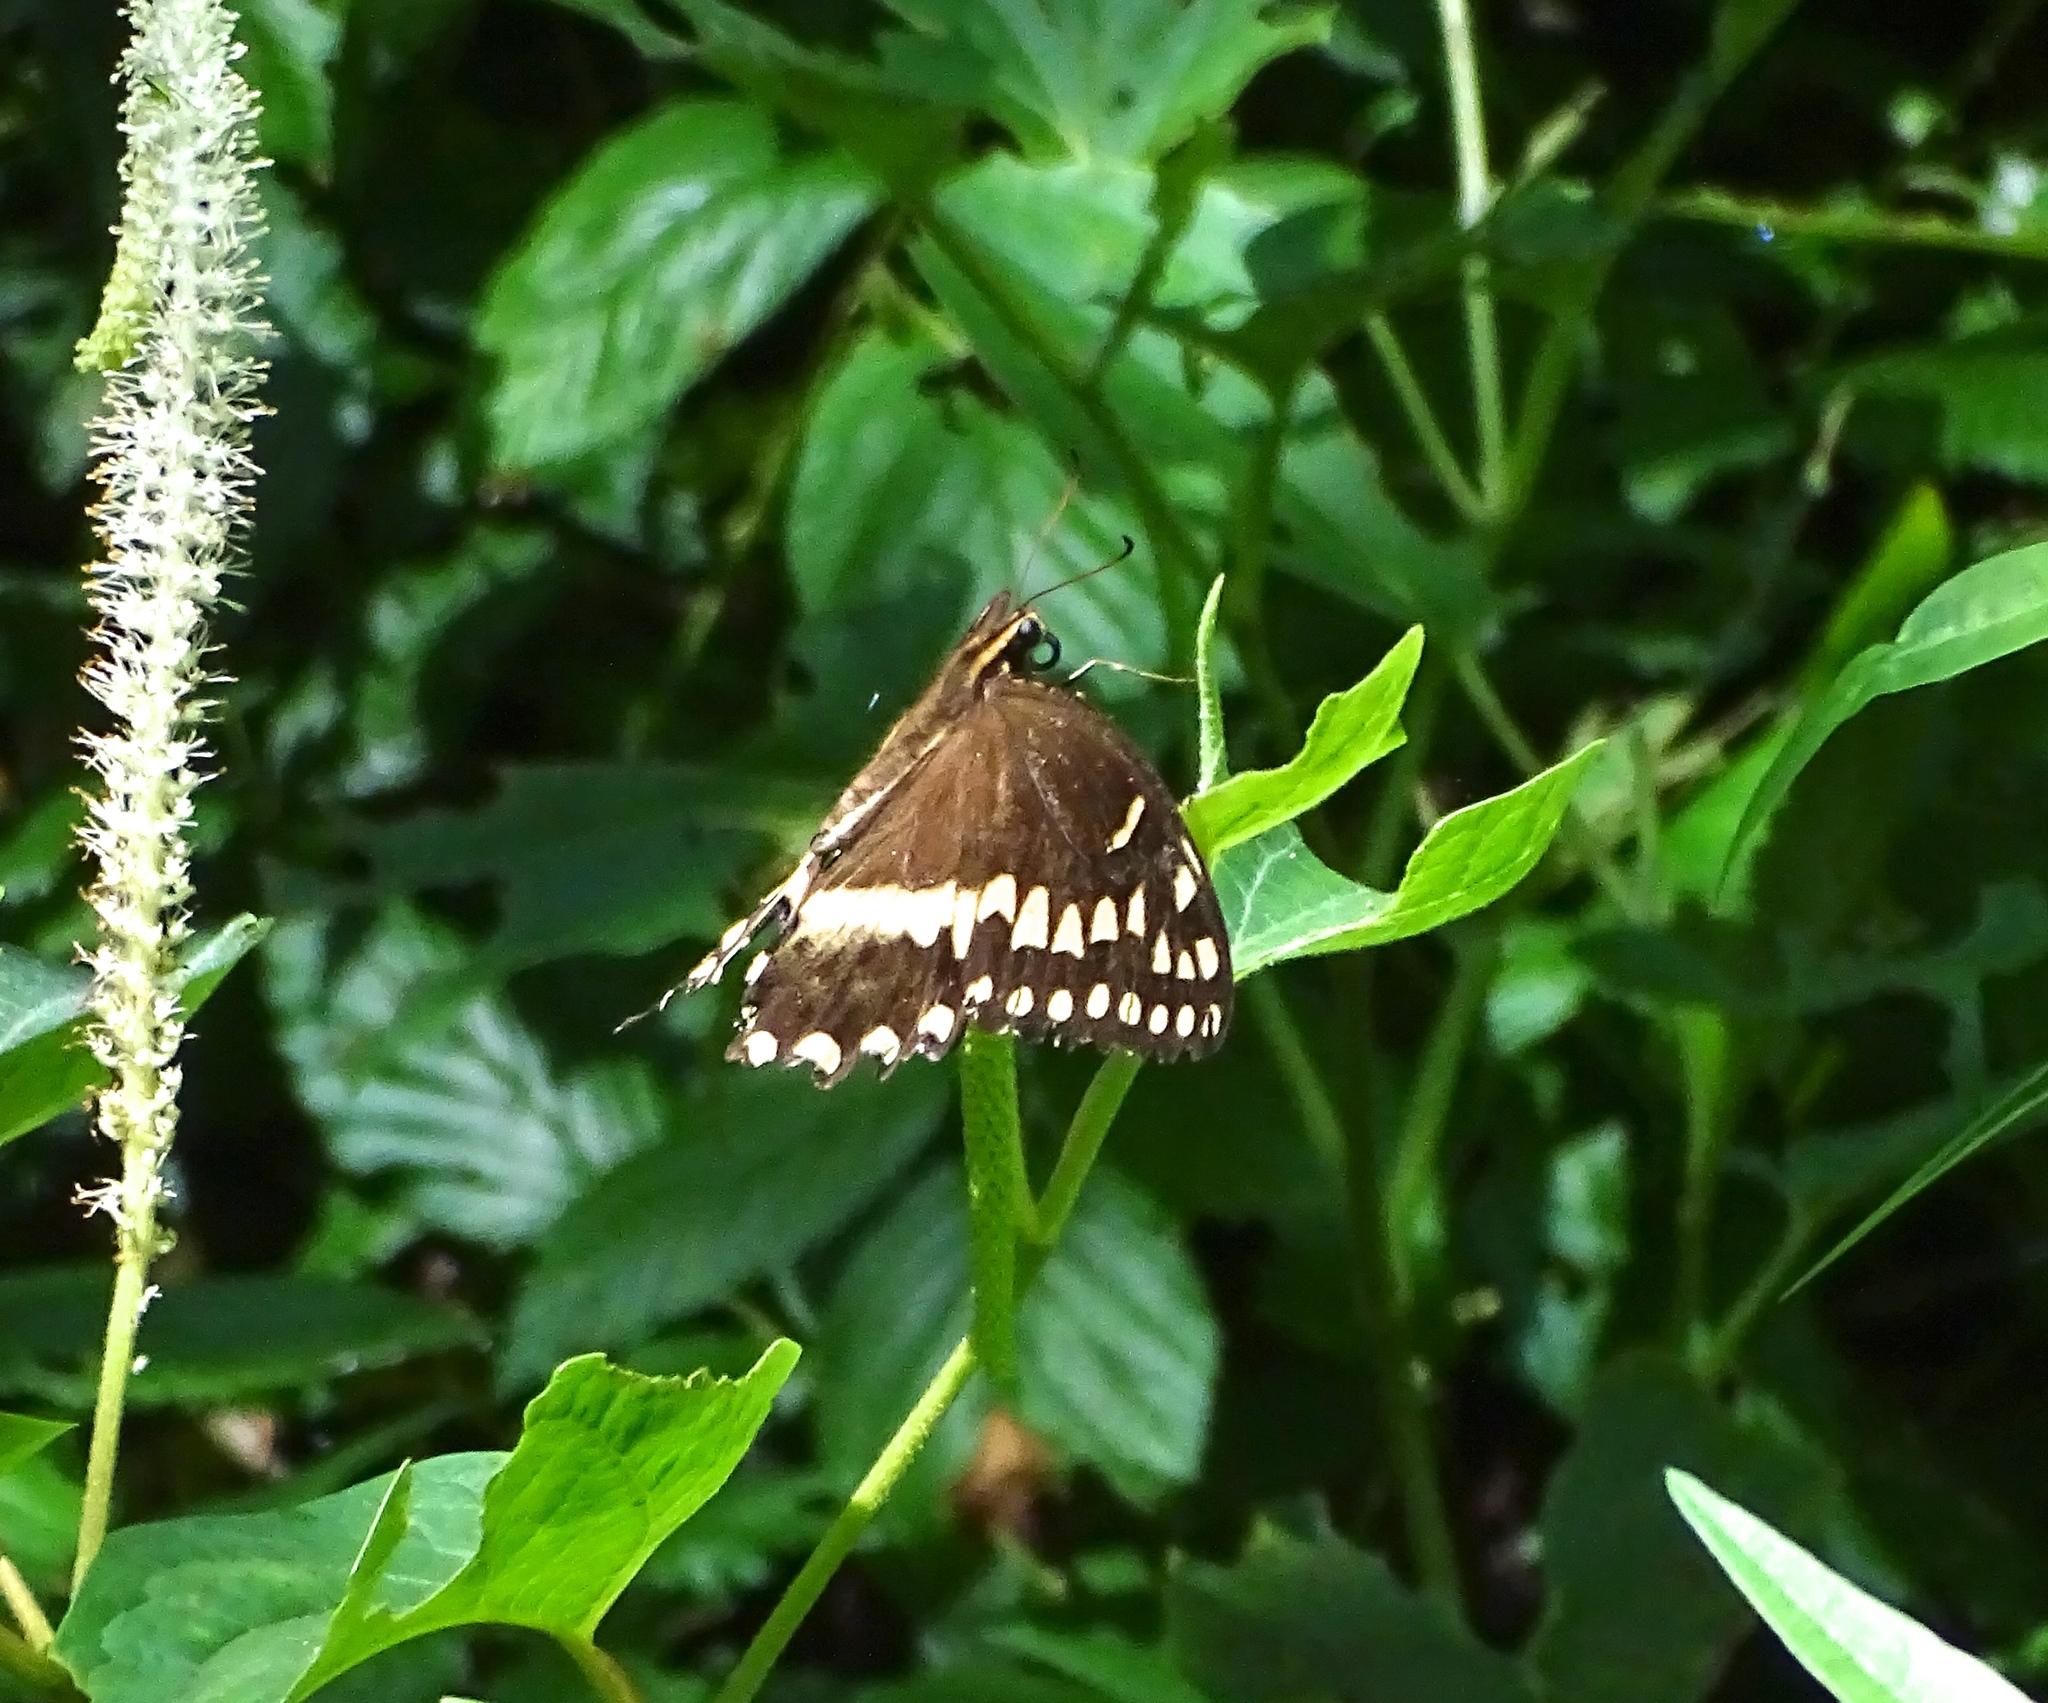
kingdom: Animalia
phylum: Arthropoda
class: Insecta
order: Lepidoptera
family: Papilionidae
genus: Papilio
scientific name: Papilio palamedes
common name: Palamedes swallowtail
